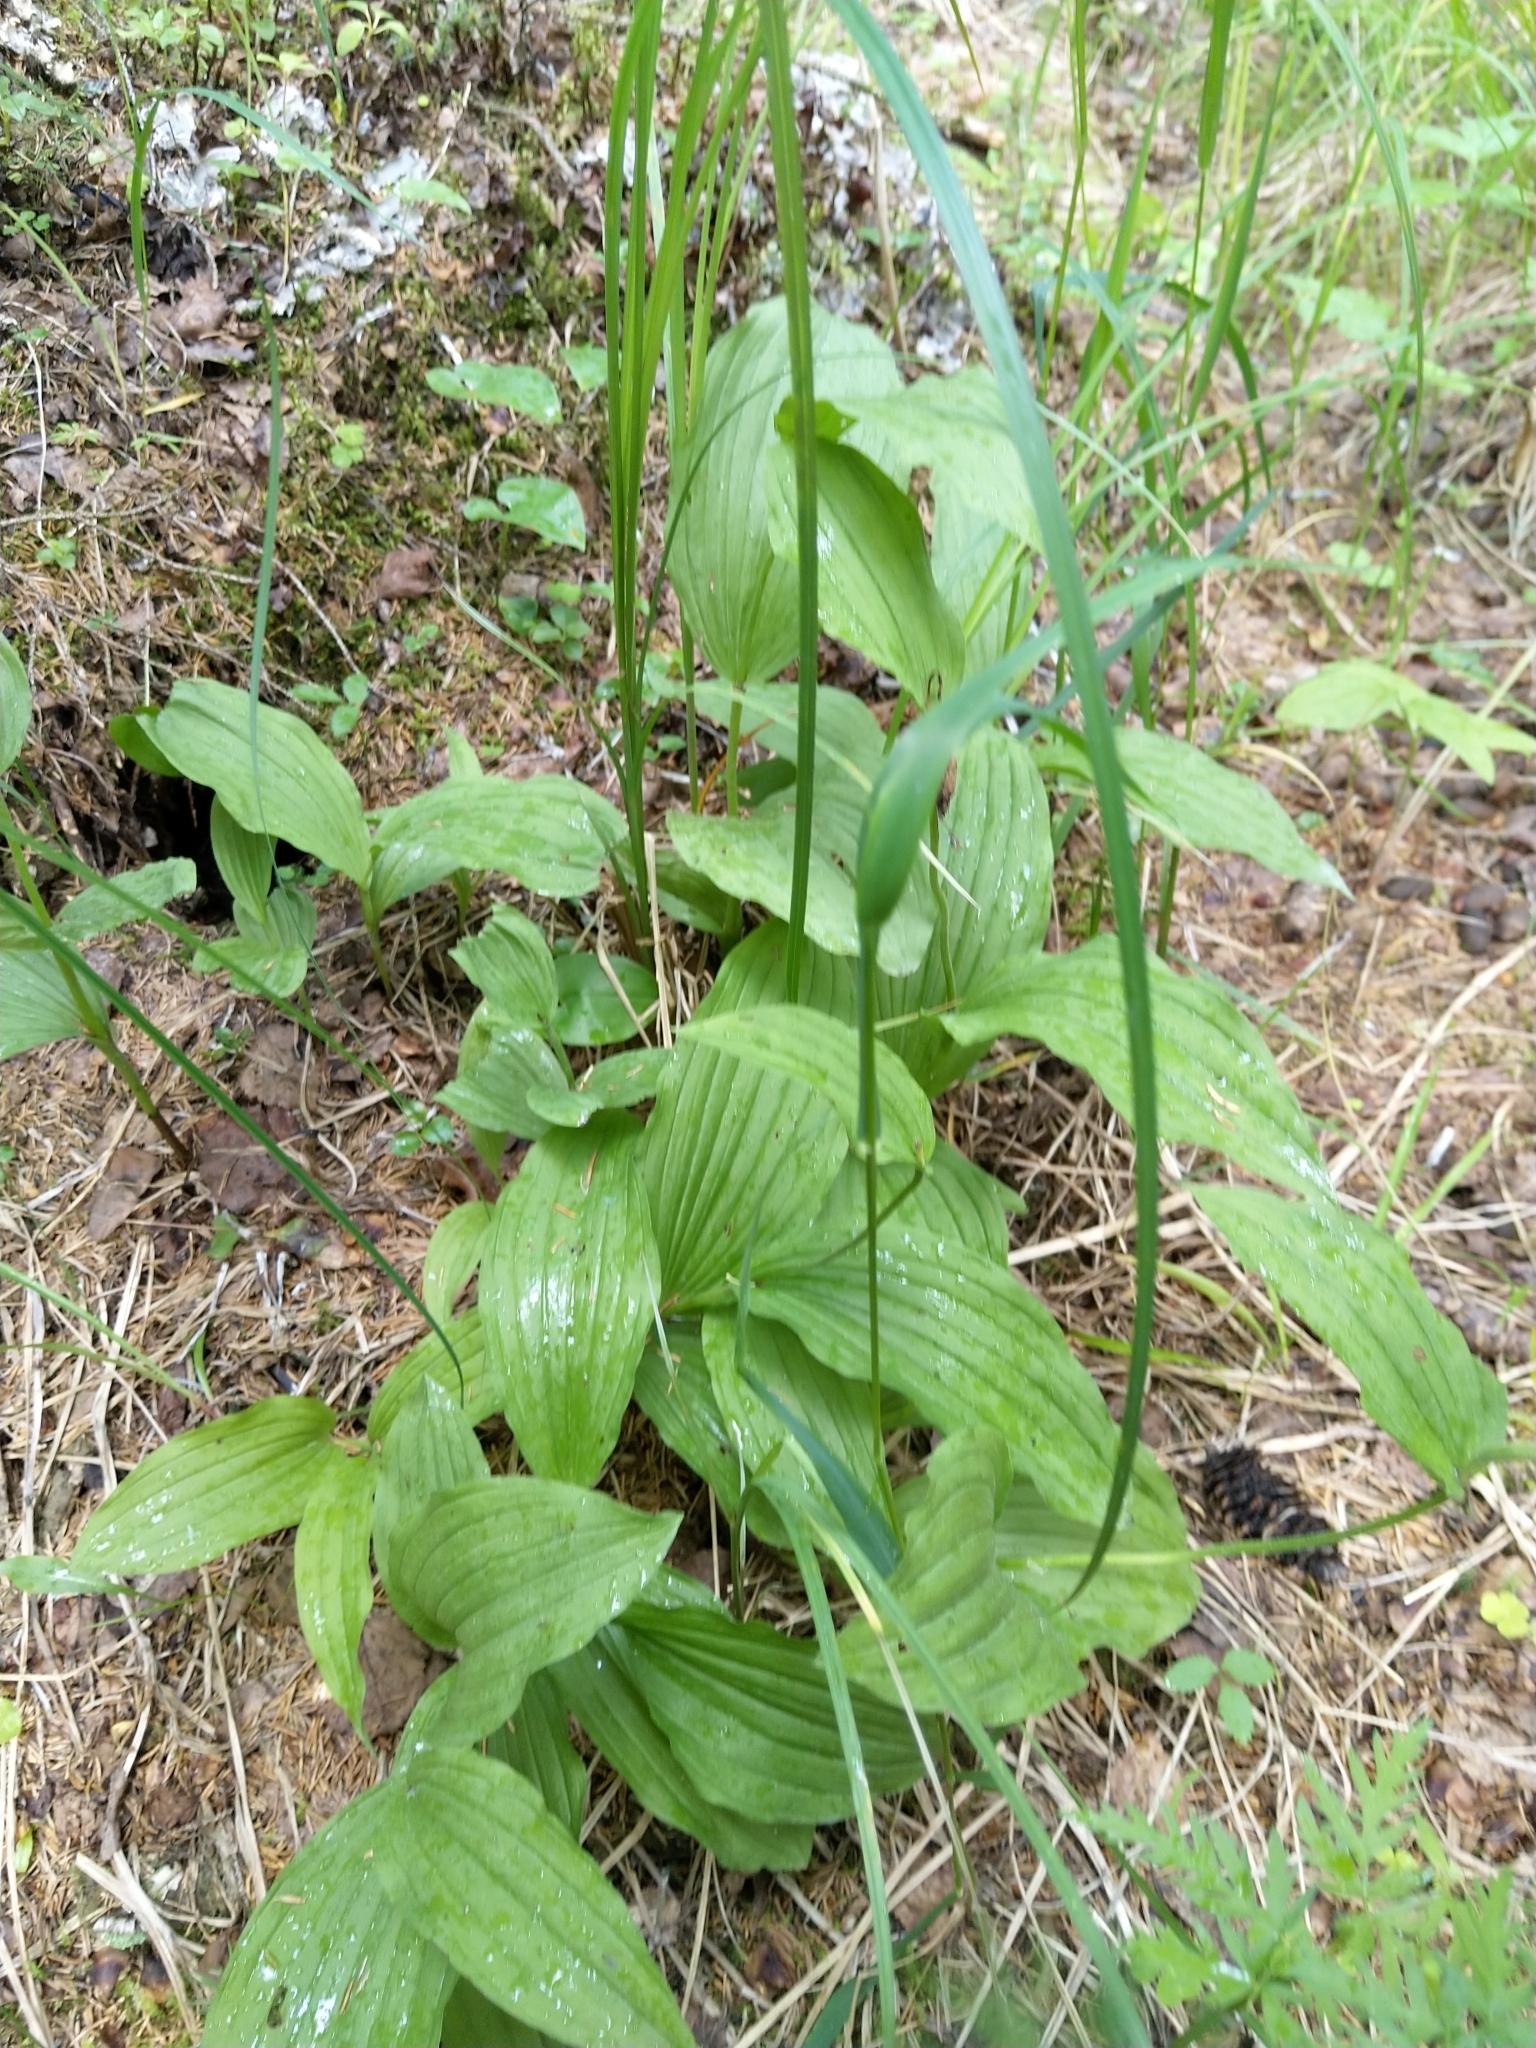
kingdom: Plantae
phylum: Tracheophyta
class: Liliopsida
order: Asparagales
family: Orchidaceae
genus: Cypripedium
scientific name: Cypripedium calceolus
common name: Lady's-slipper
